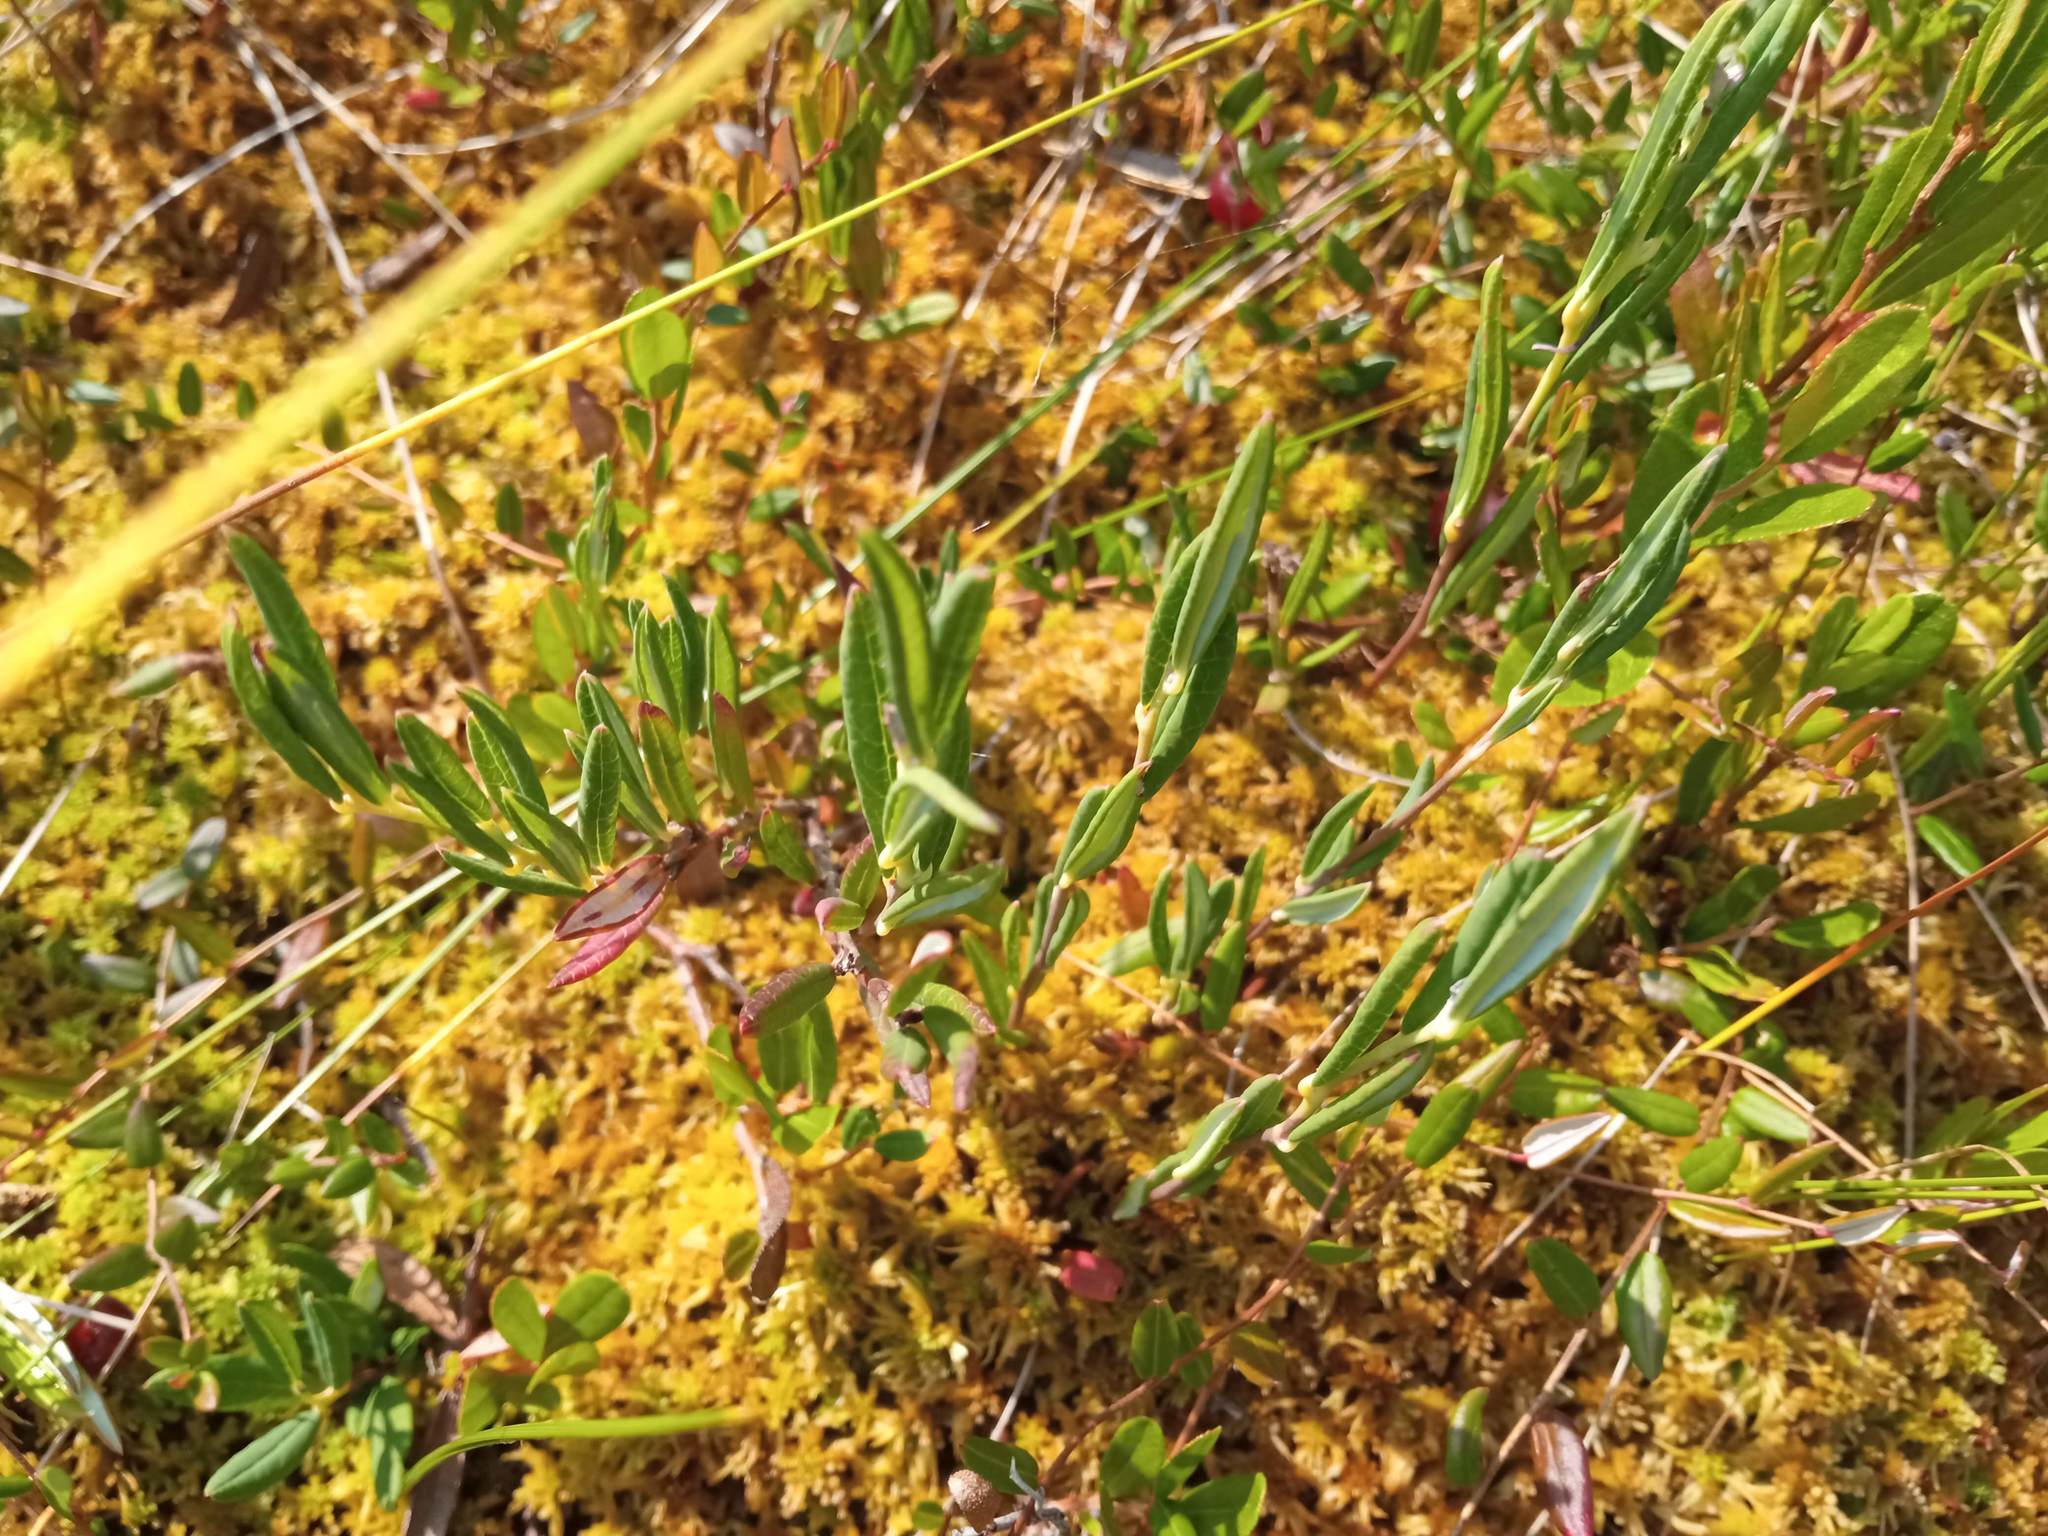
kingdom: Plantae
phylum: Tracheophyta
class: Magnoliopsida
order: Ericales
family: Ericaceae
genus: Andromeda
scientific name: Andromeda polifolia
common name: Bog-rosemary
